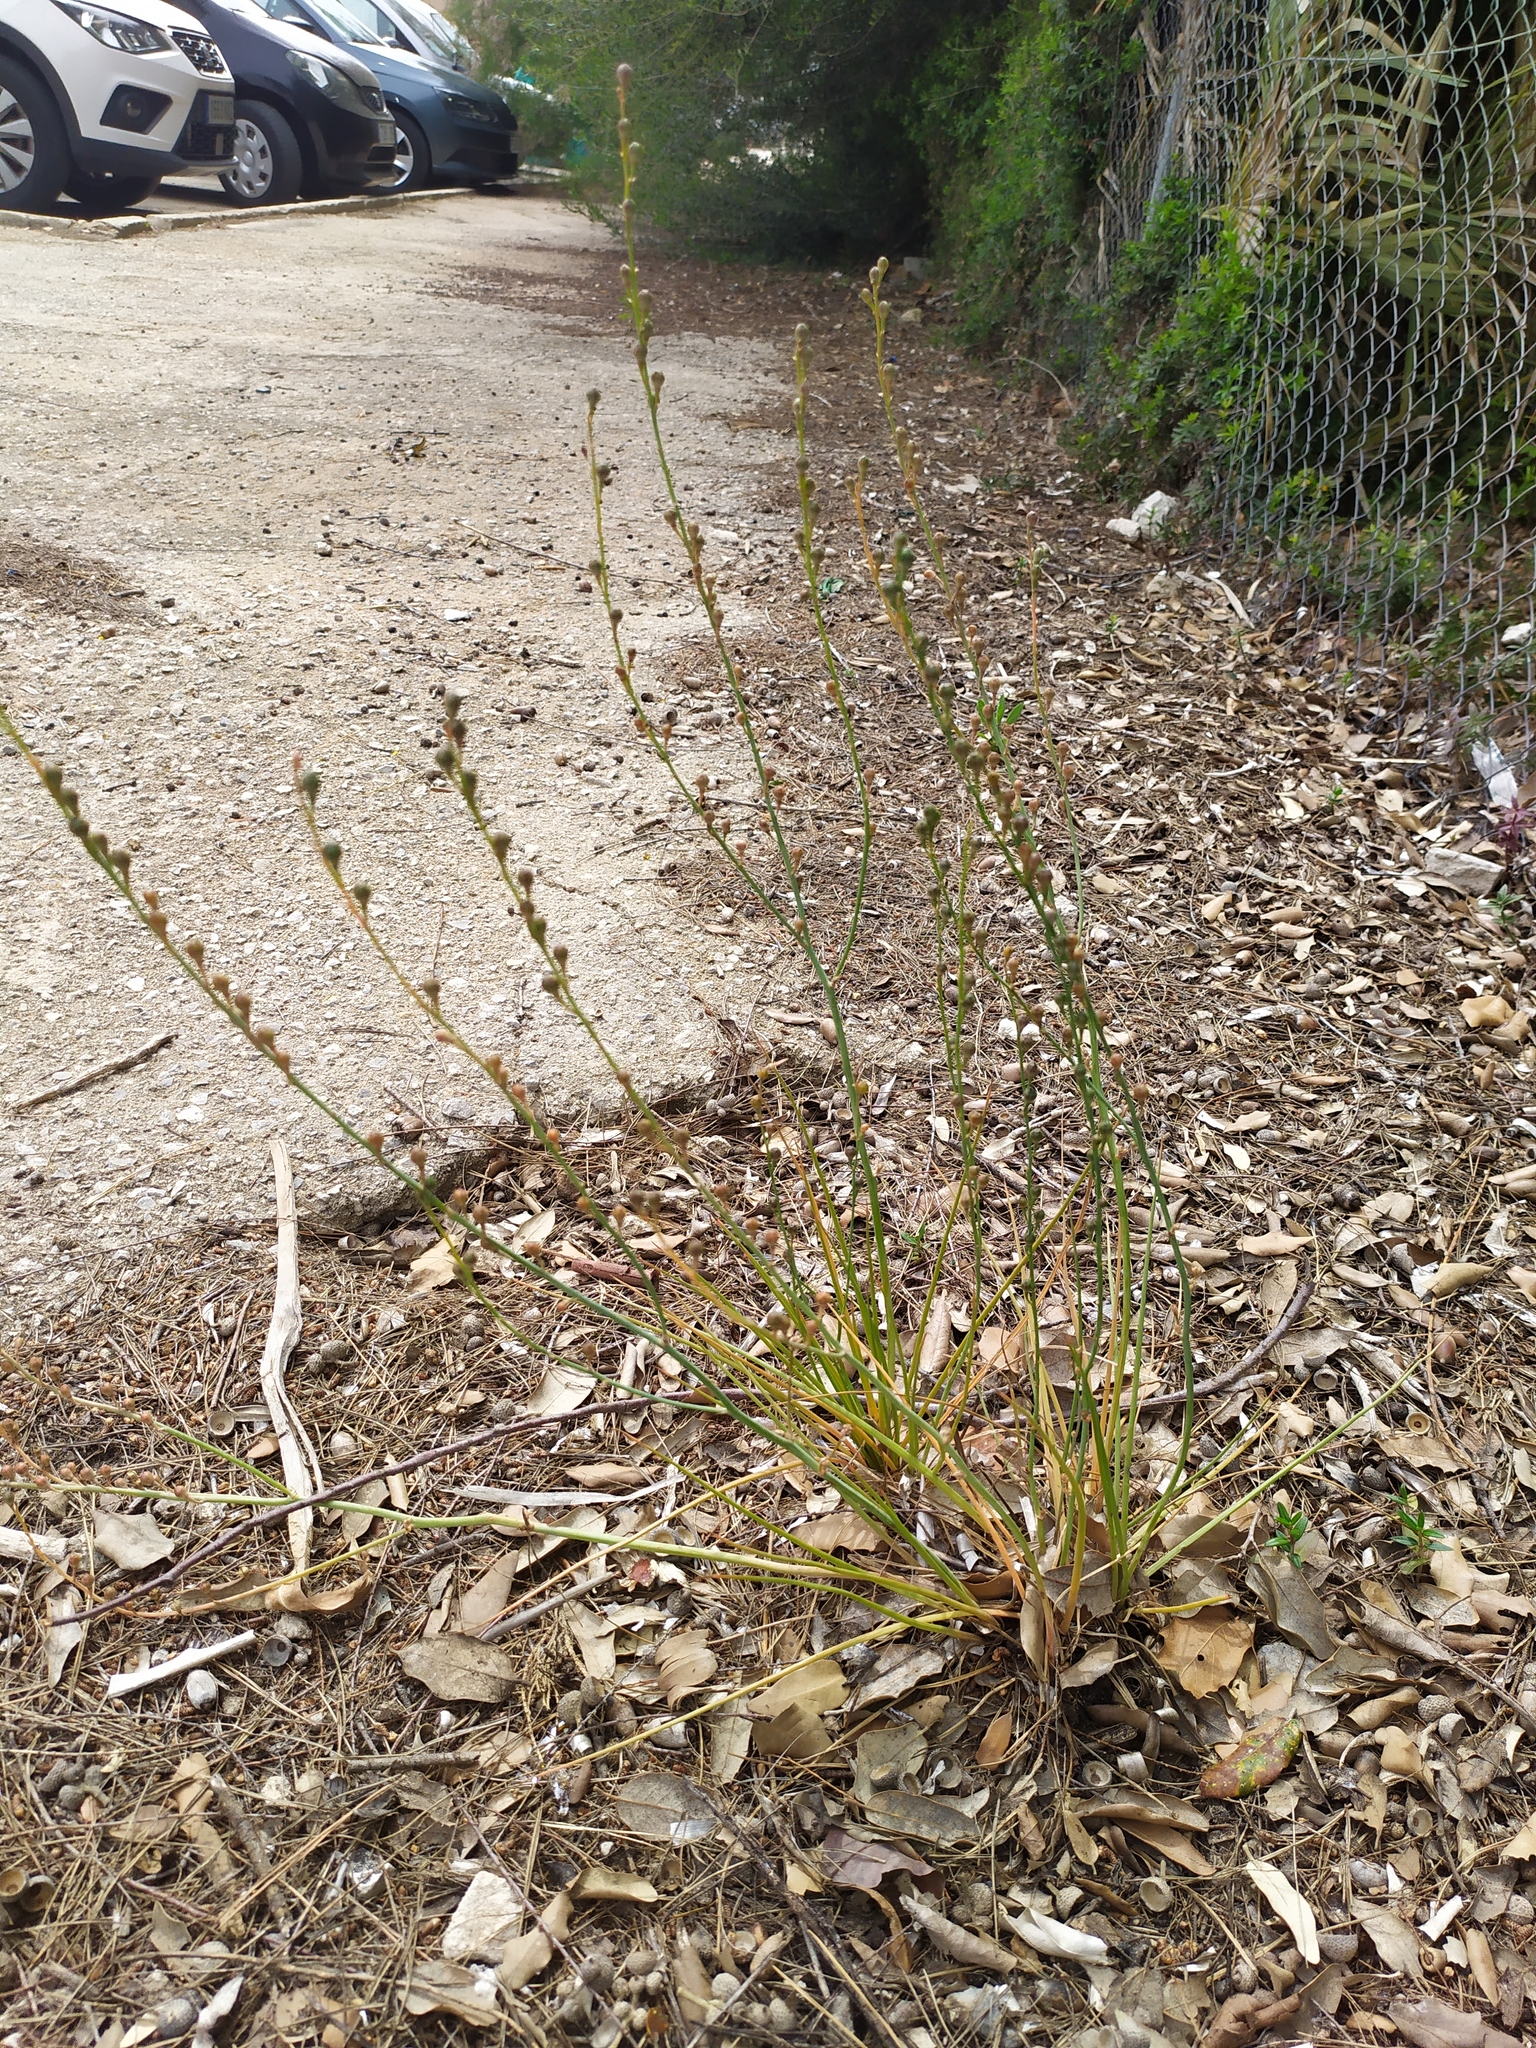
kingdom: Plantae
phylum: Tracheophyta
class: Liliopsida
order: Asparagales
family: Asphodelaceae
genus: Asphodelus
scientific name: Asphodelus fistulosus
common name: Onionweed
